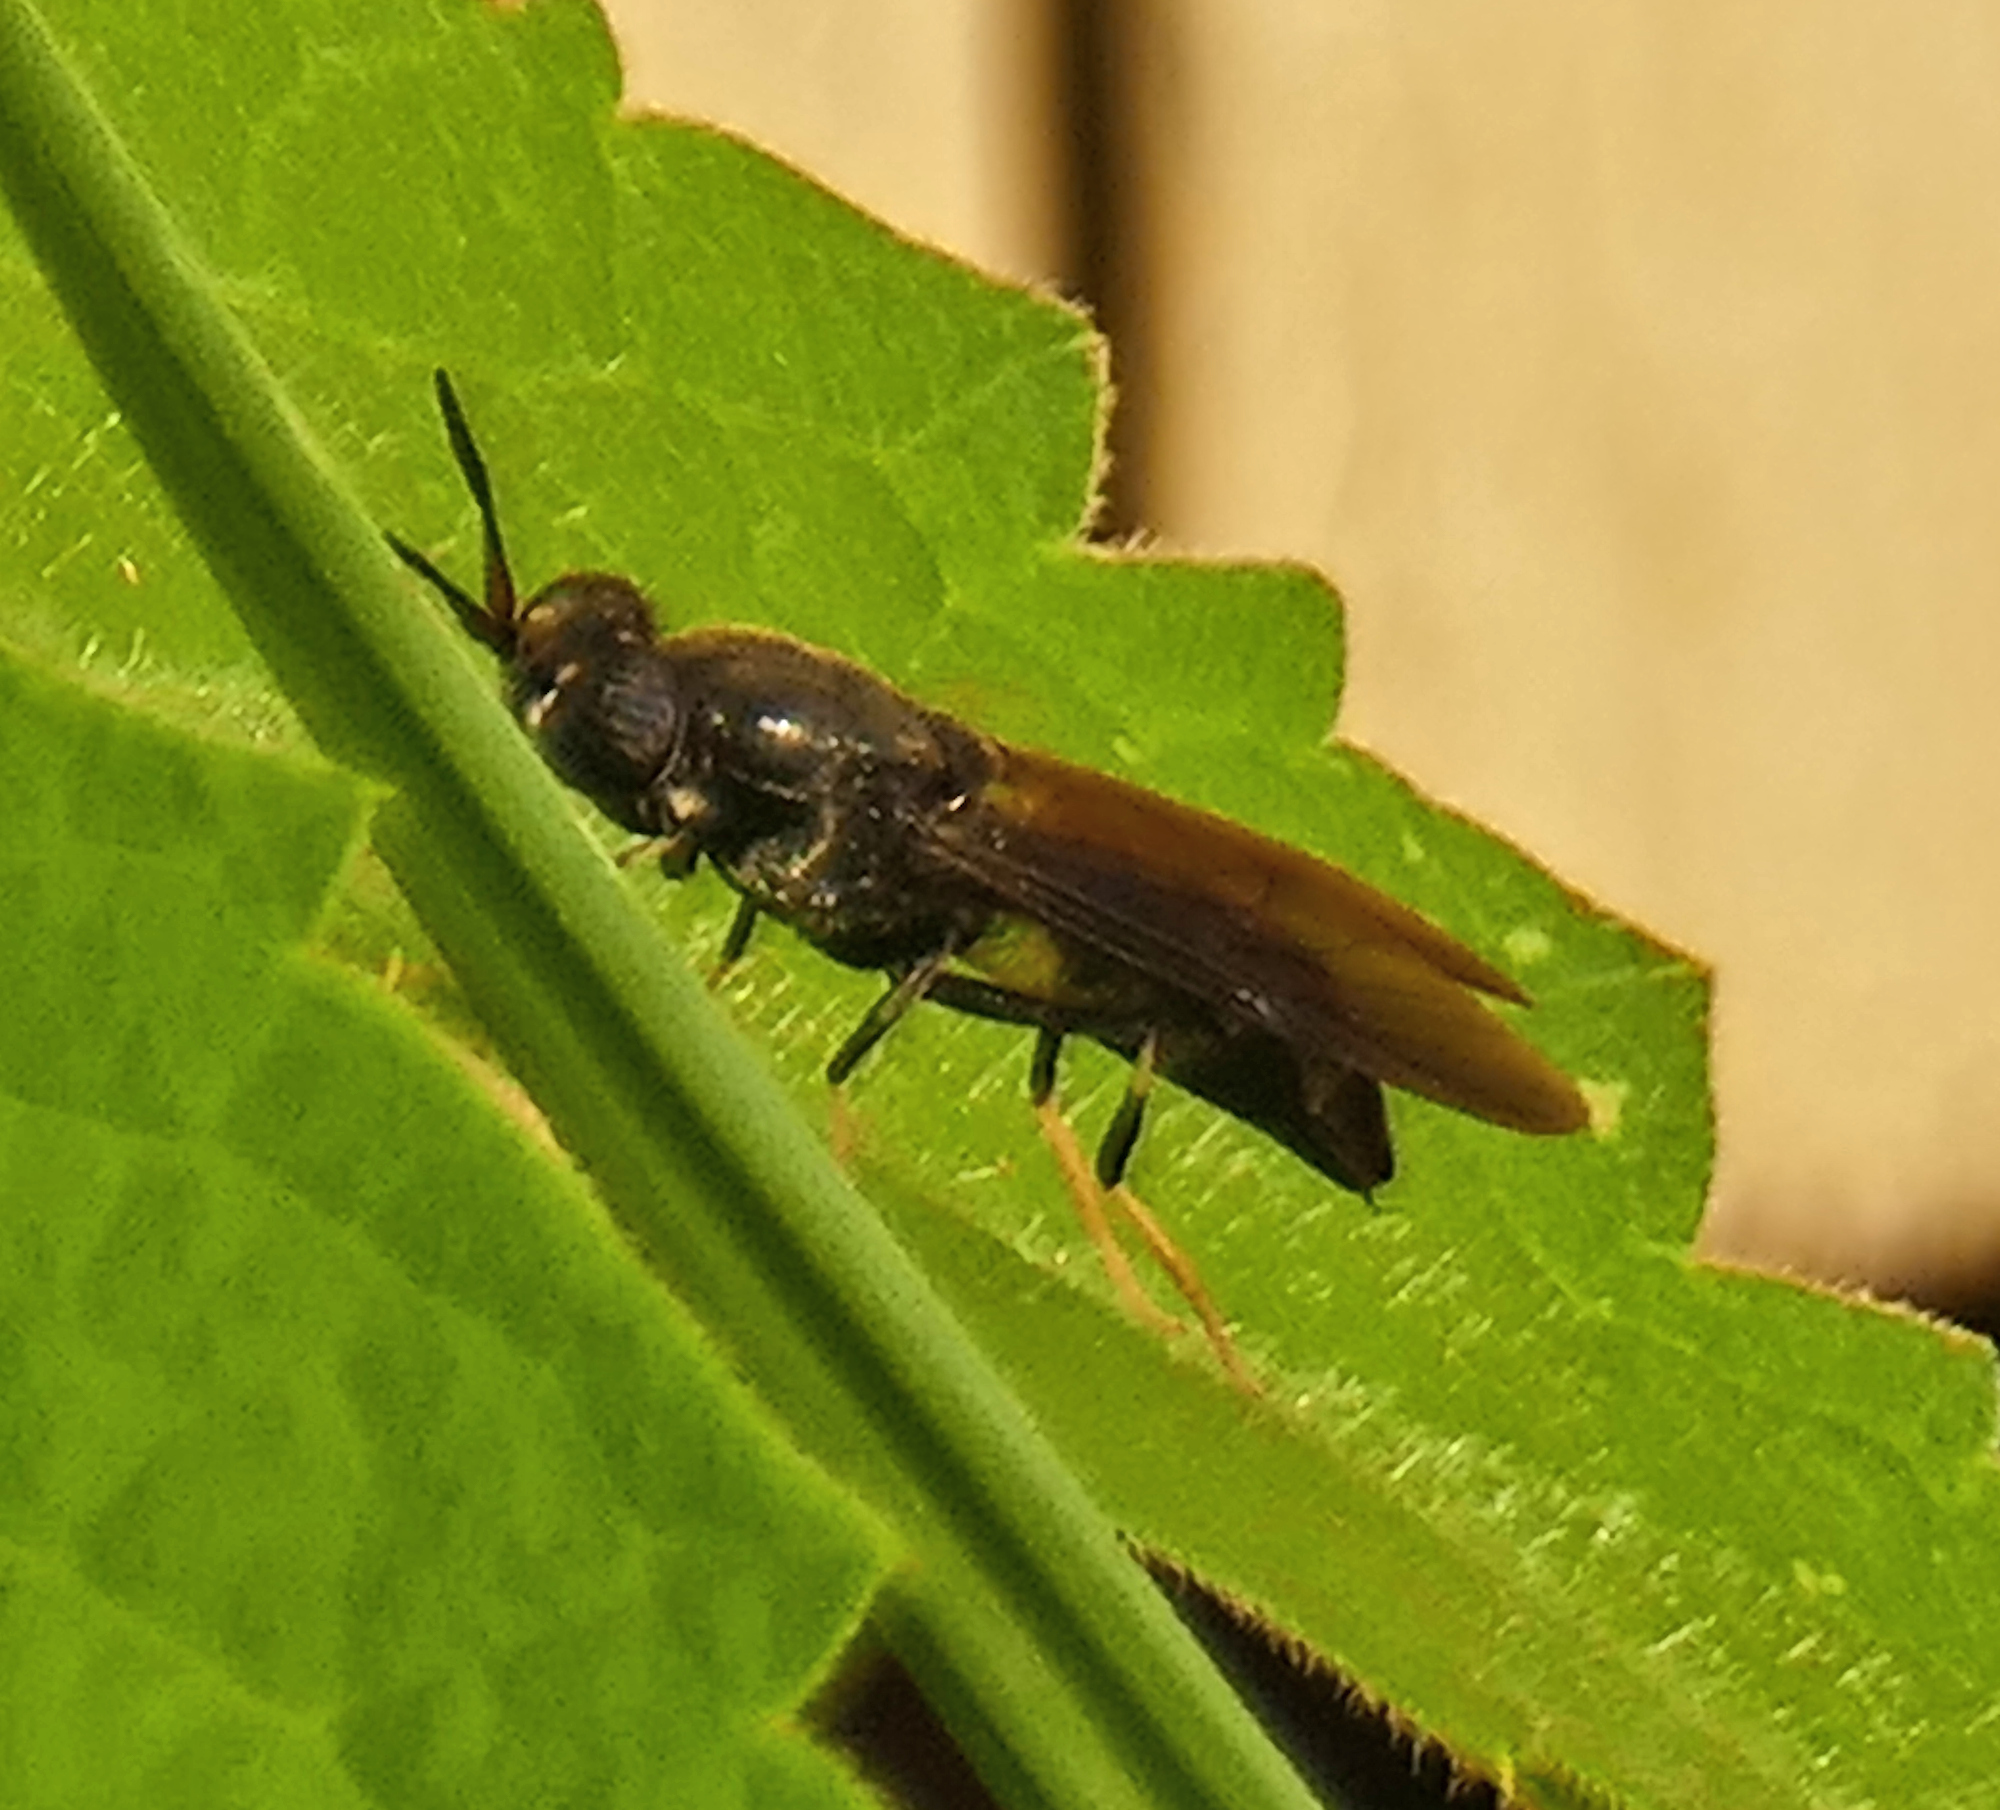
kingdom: Animalia
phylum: Arthropoda
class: Insecta
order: Diptera
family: Stratiomyidae
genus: Hermetia
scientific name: Hermetia illucens
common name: Black soldier fly
